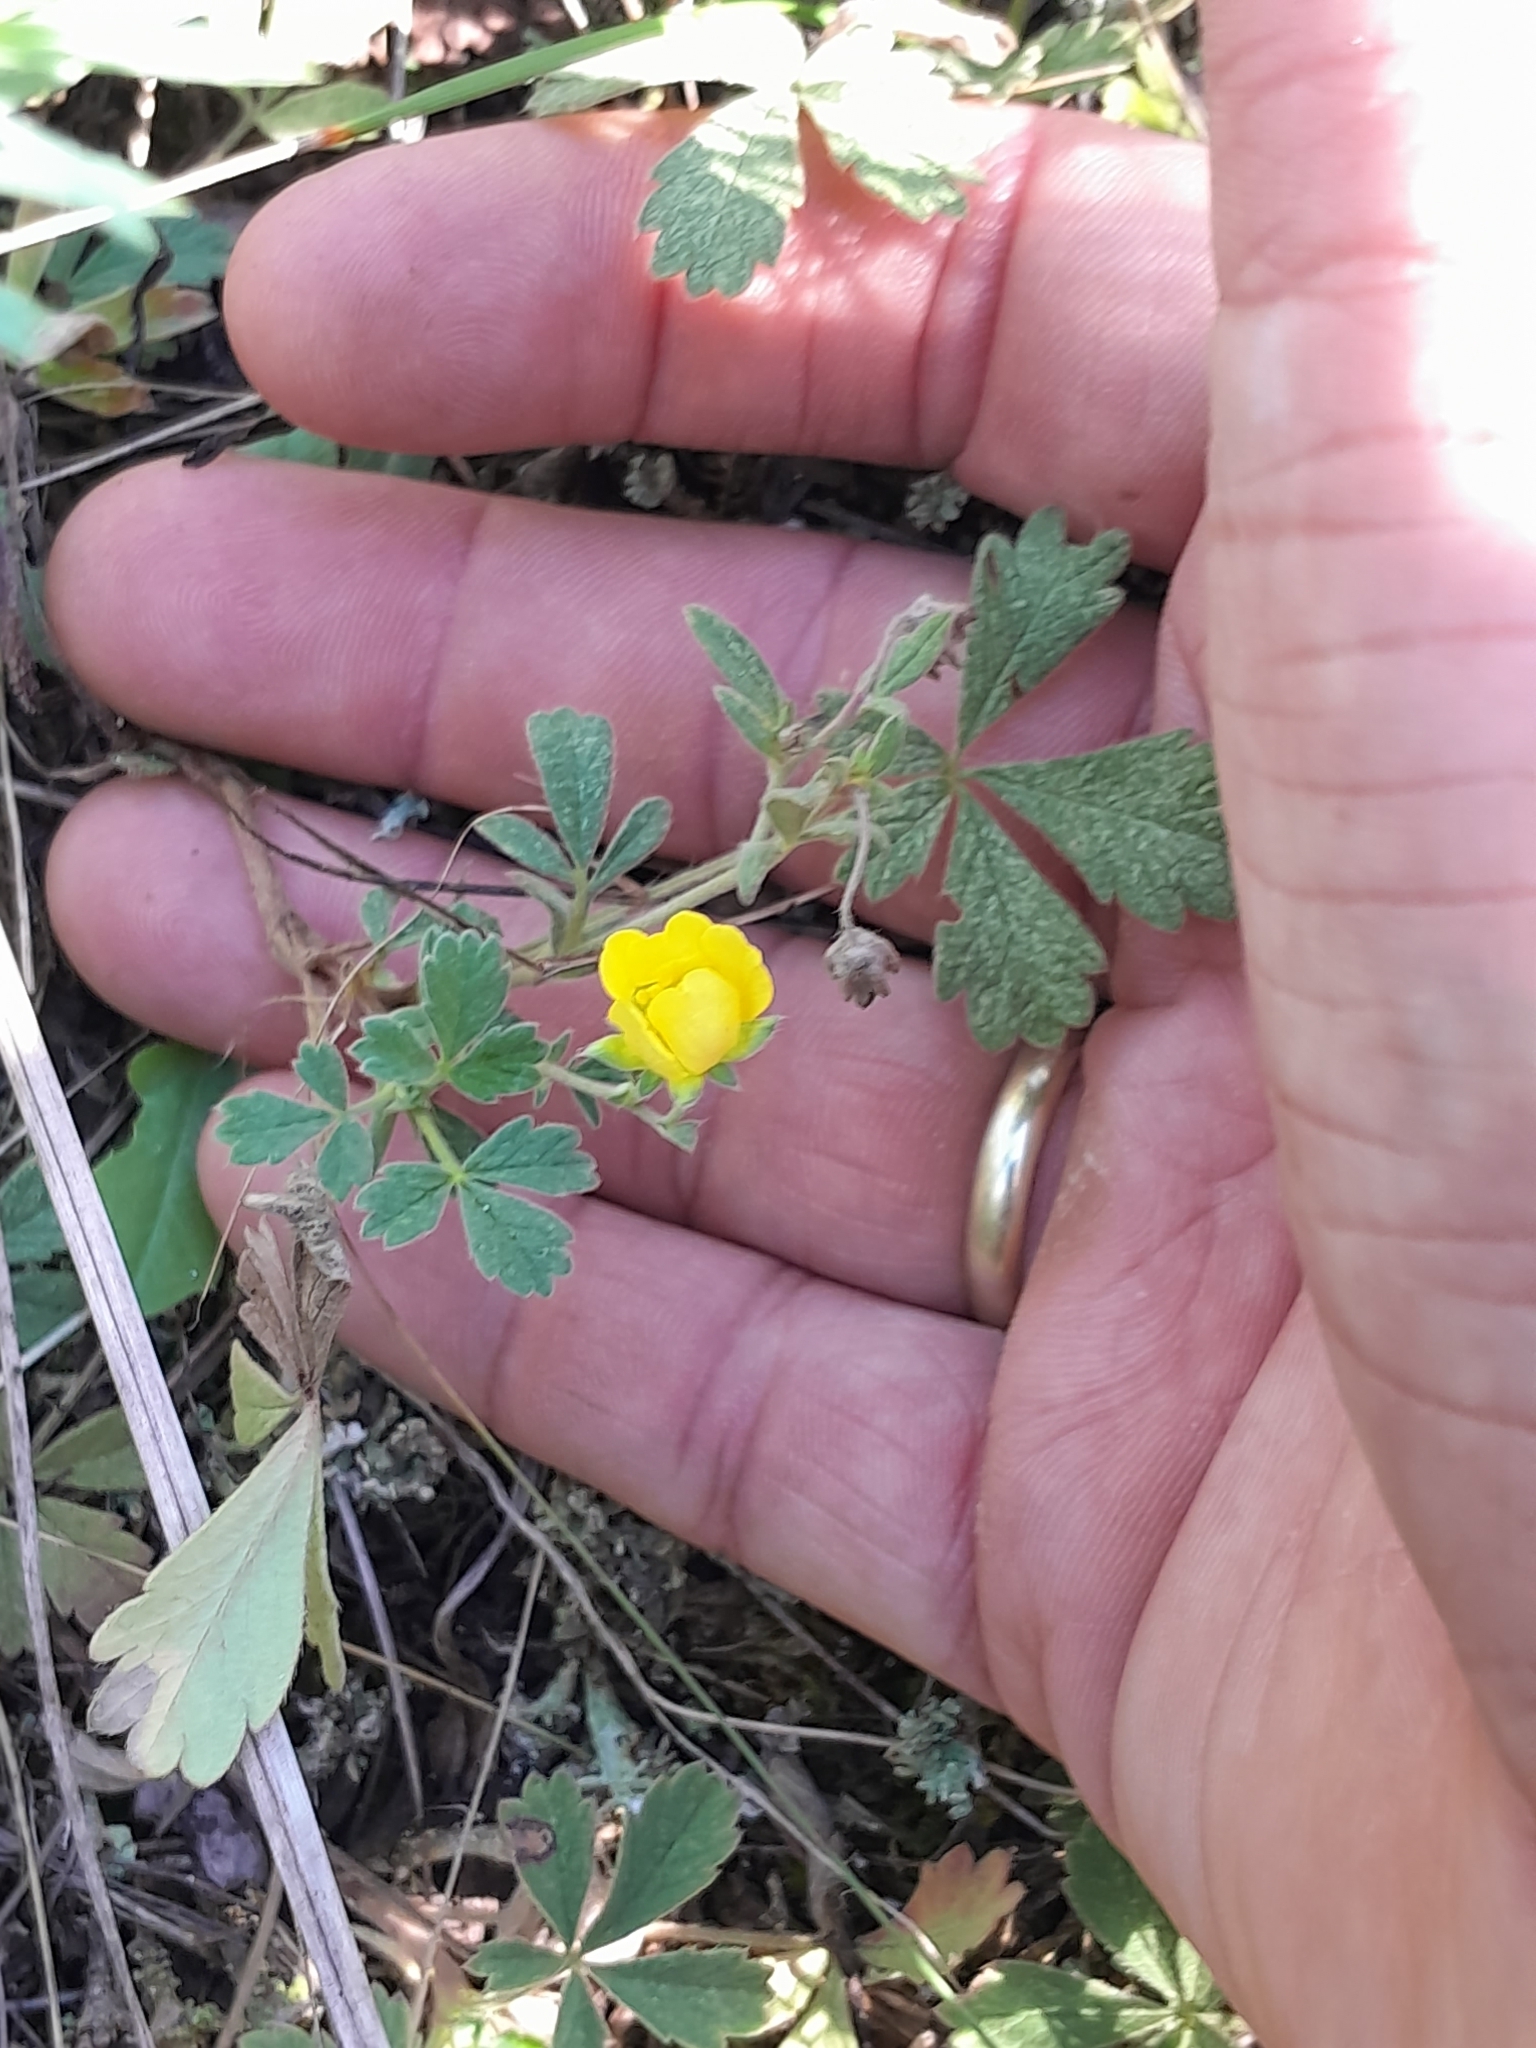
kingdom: Plantae
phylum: Tracheophyta
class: Magnoliopsida
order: Rosales
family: Rosaceae
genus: Potentilla
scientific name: Potentilla incana
